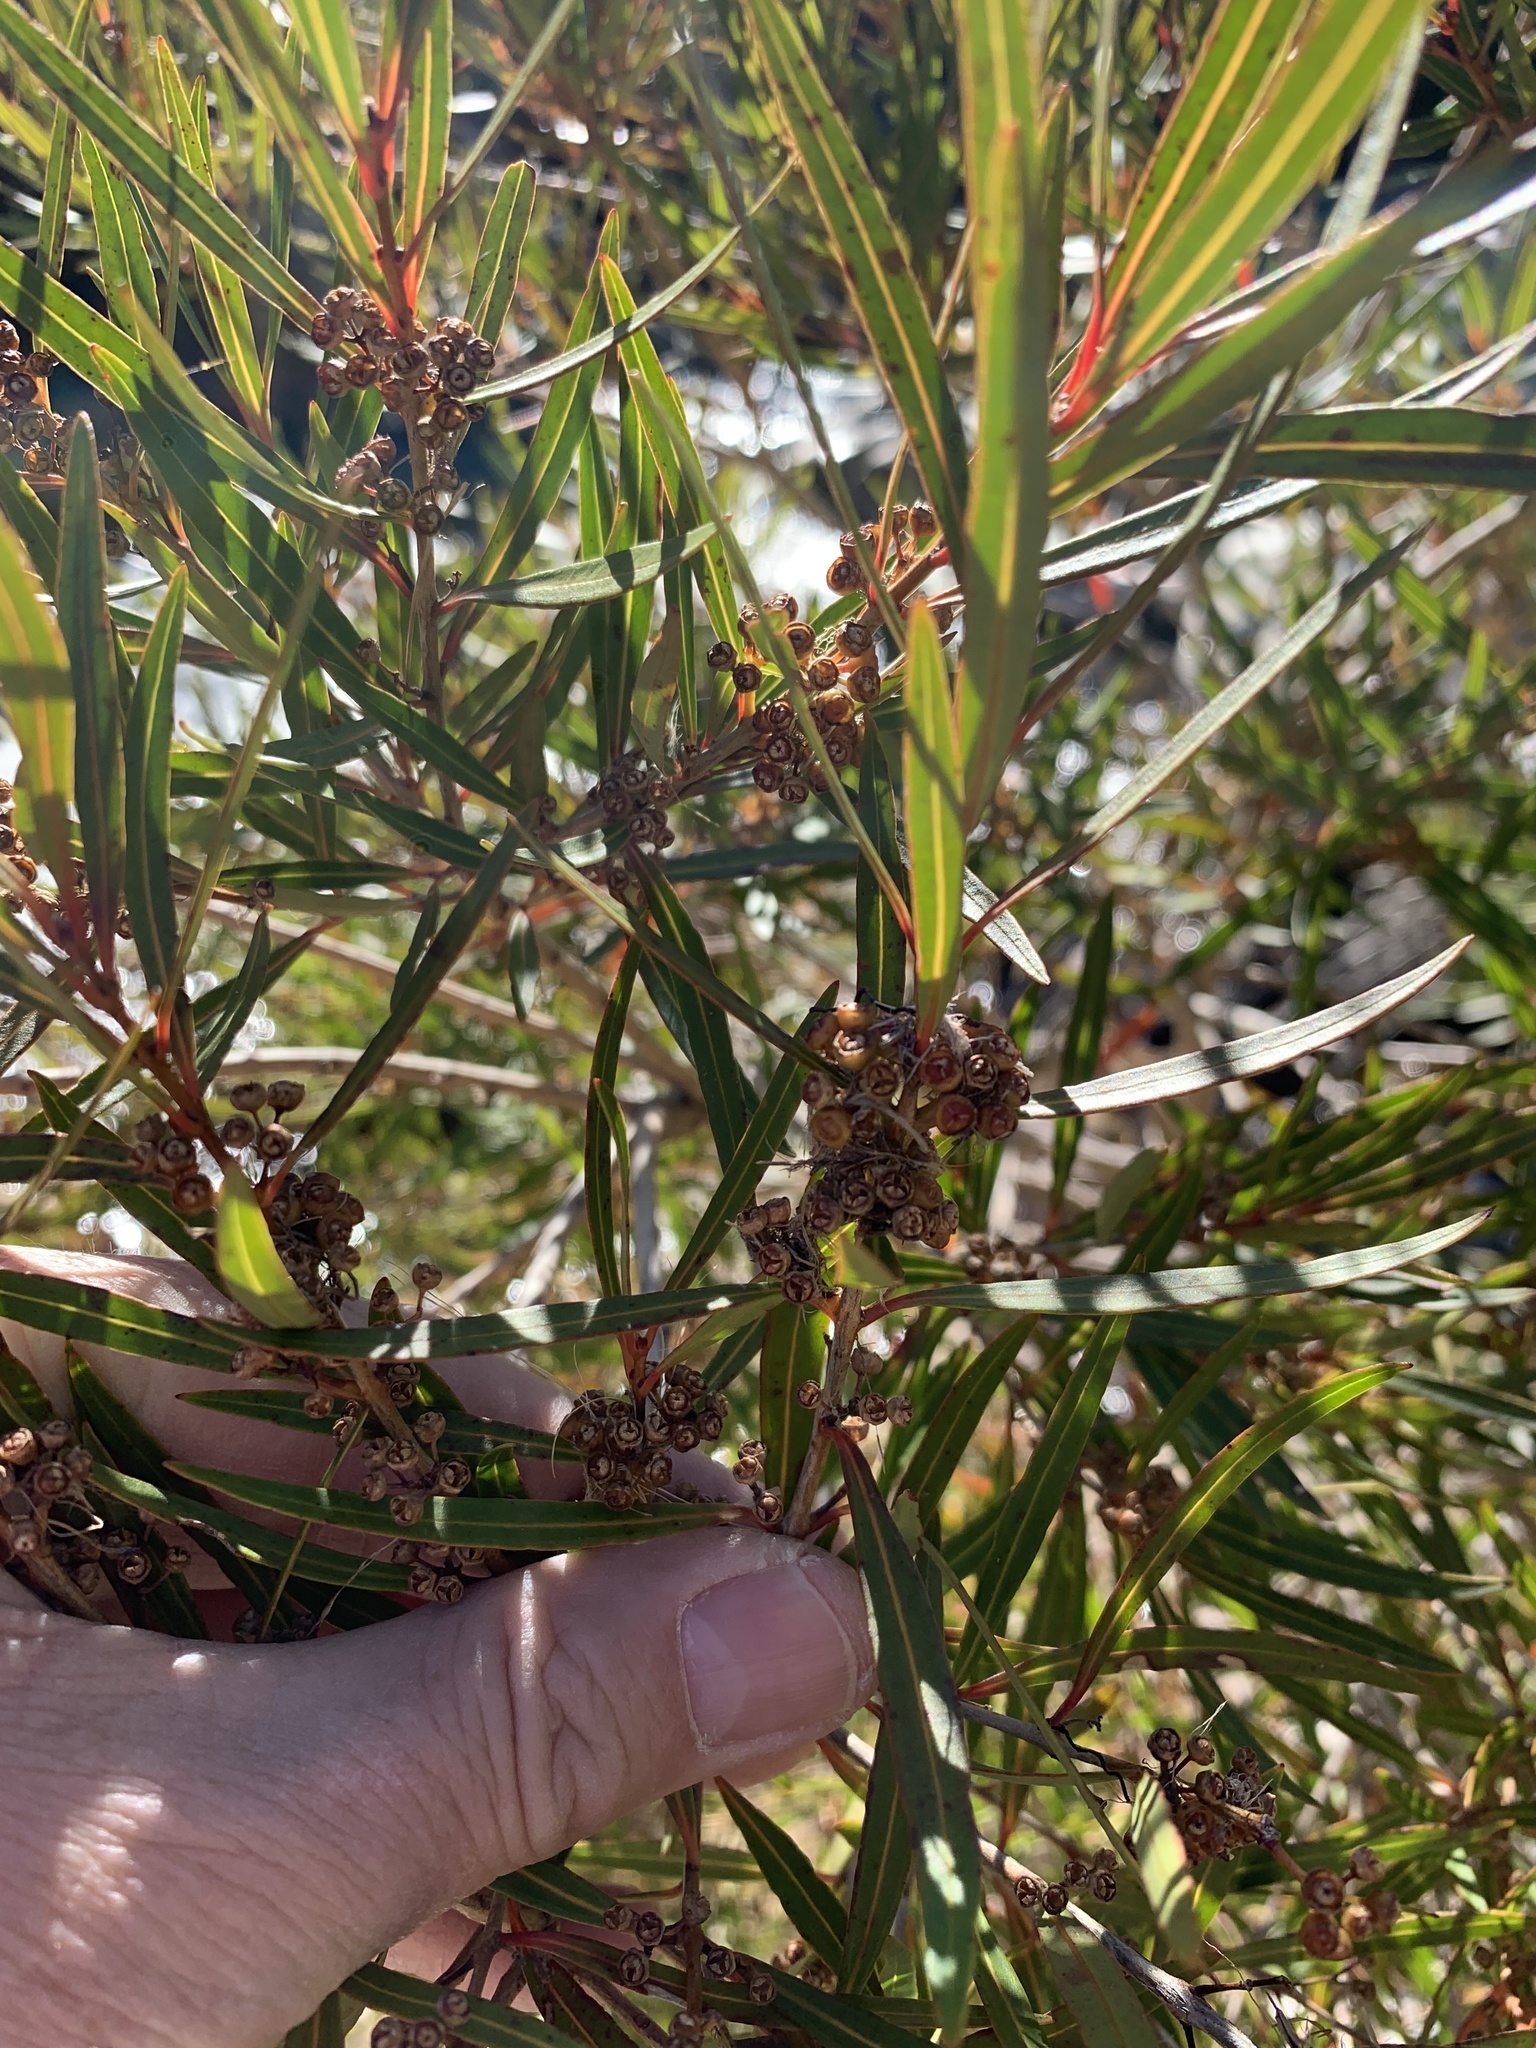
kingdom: Plantae
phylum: Tracheophyta
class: Magnoliopsida
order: Myrtales
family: Myrtaceae
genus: Callistemon
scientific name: Callistemon lanceolatus
